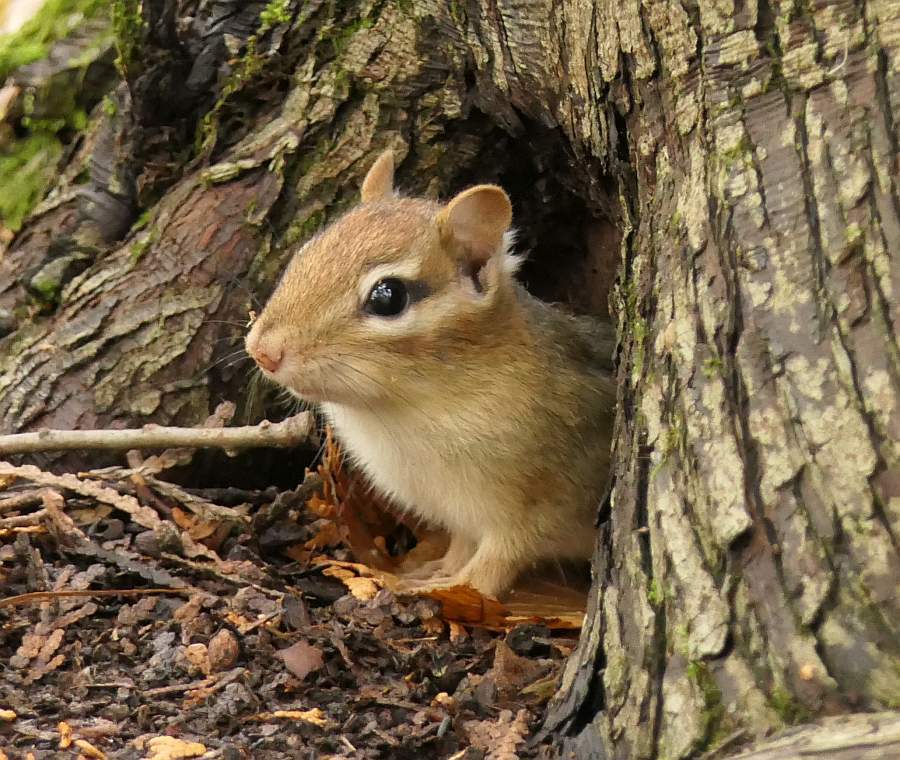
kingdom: Animalia
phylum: Chordata
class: Mammalia
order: Rodentia
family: Sciuridae
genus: Tamias
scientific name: Tamias striatus
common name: Eastern chipmunk
